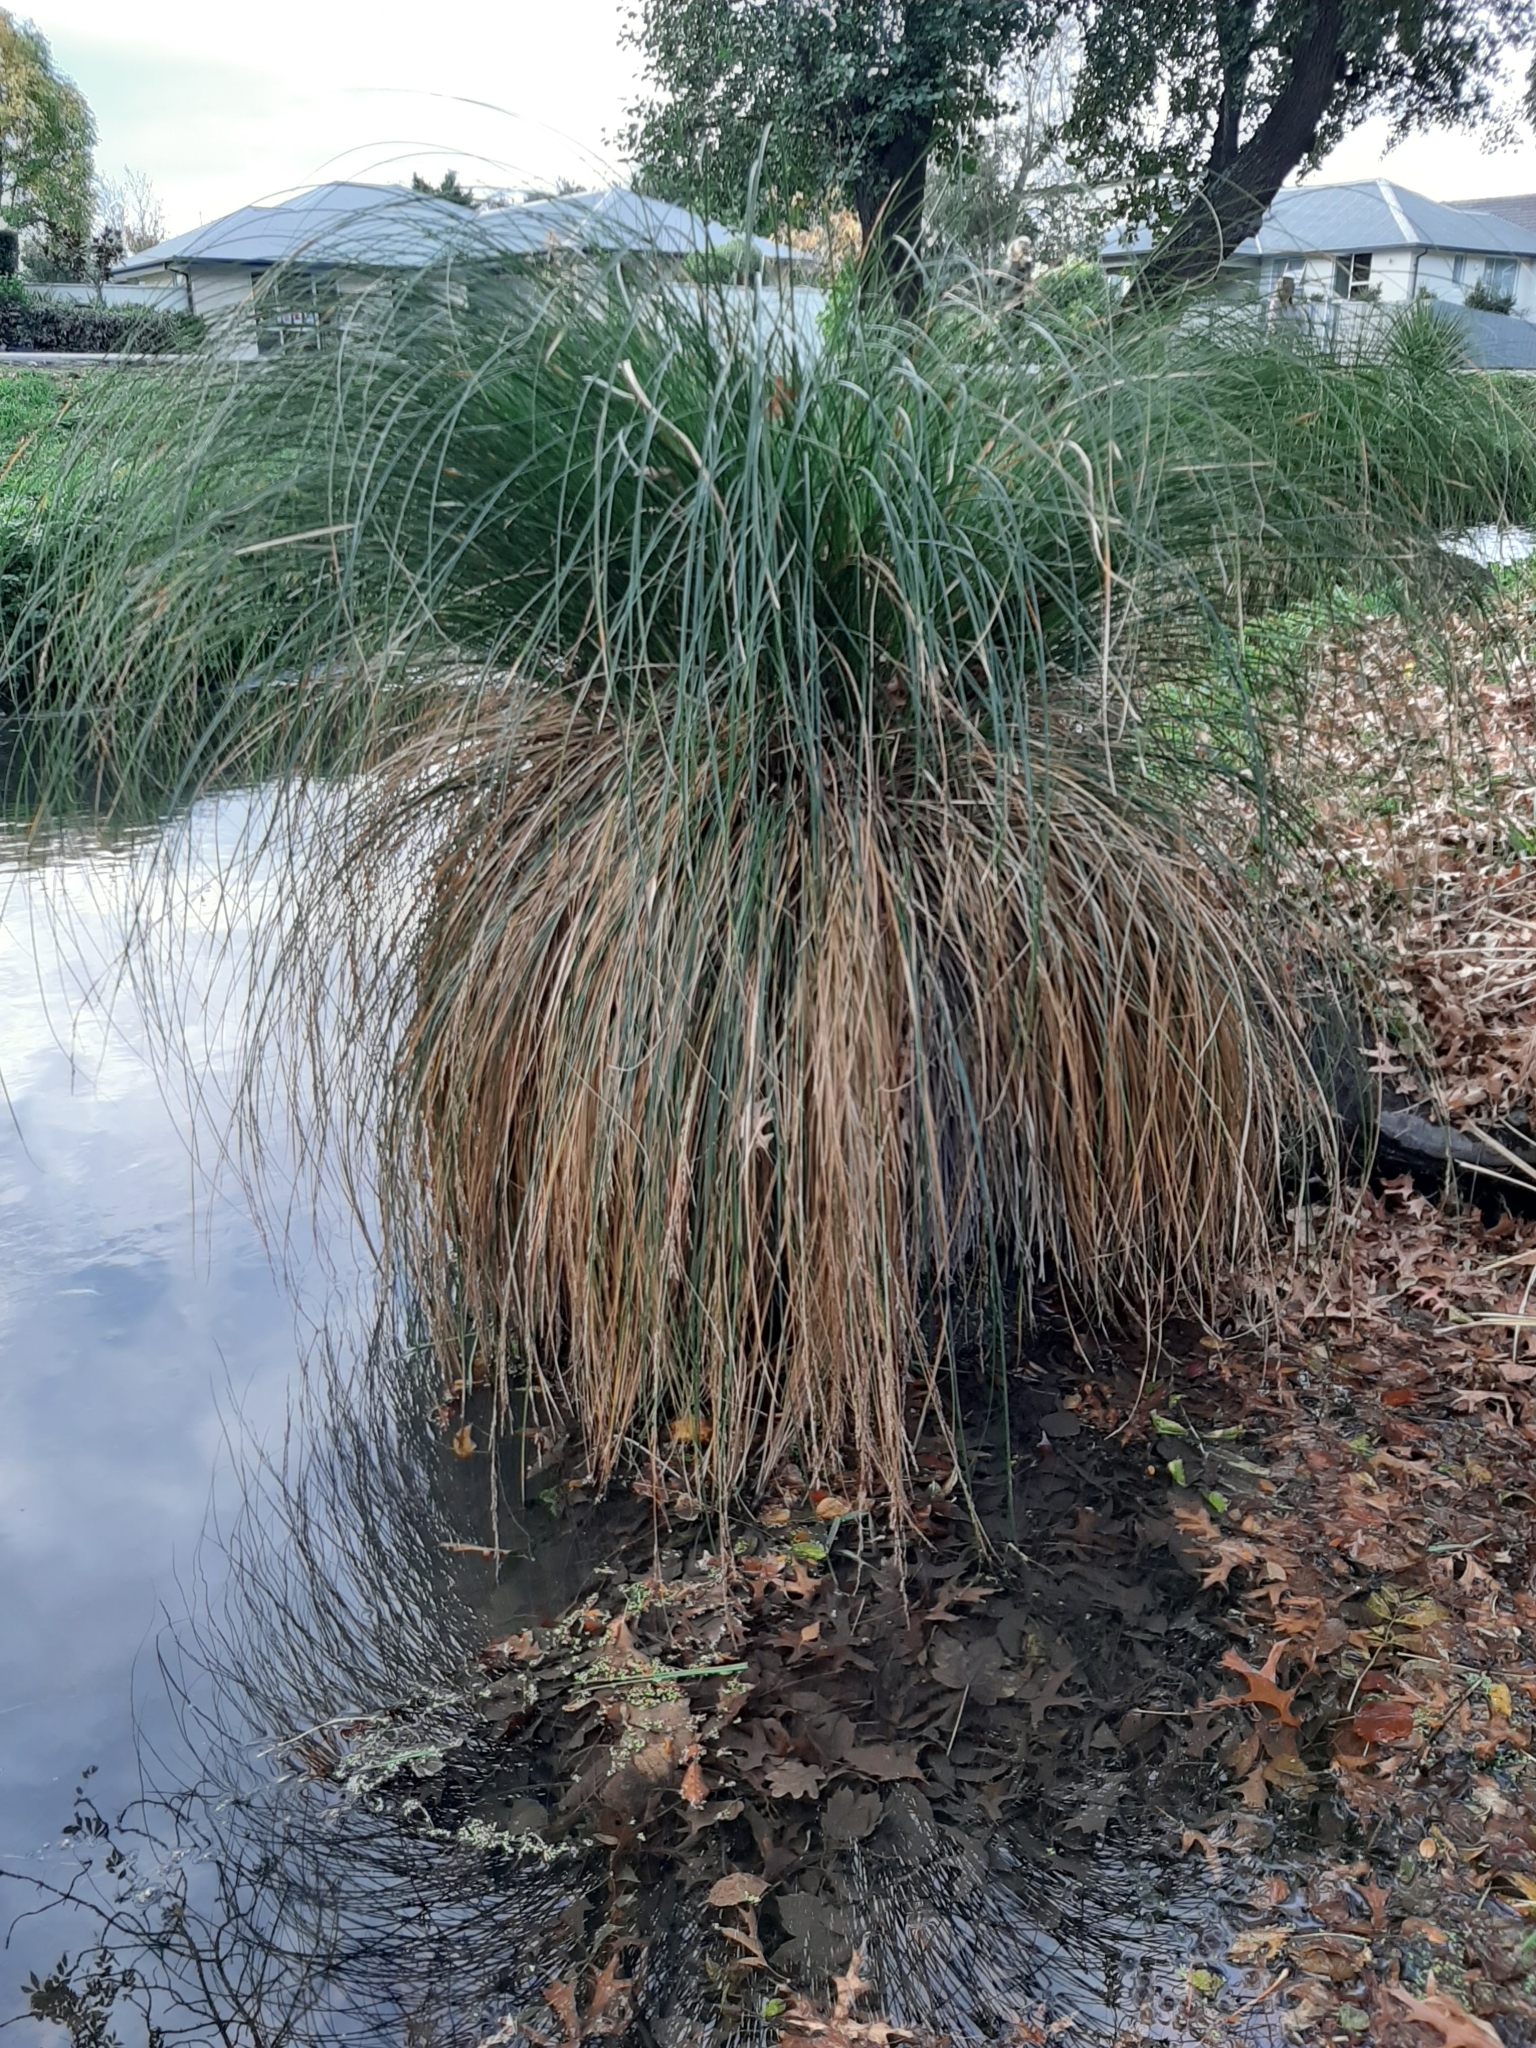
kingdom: Plantae
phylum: Tracheophyta
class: Liliopsida
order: Poales
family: Cyperaceae
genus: Carex
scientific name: Carex secta
